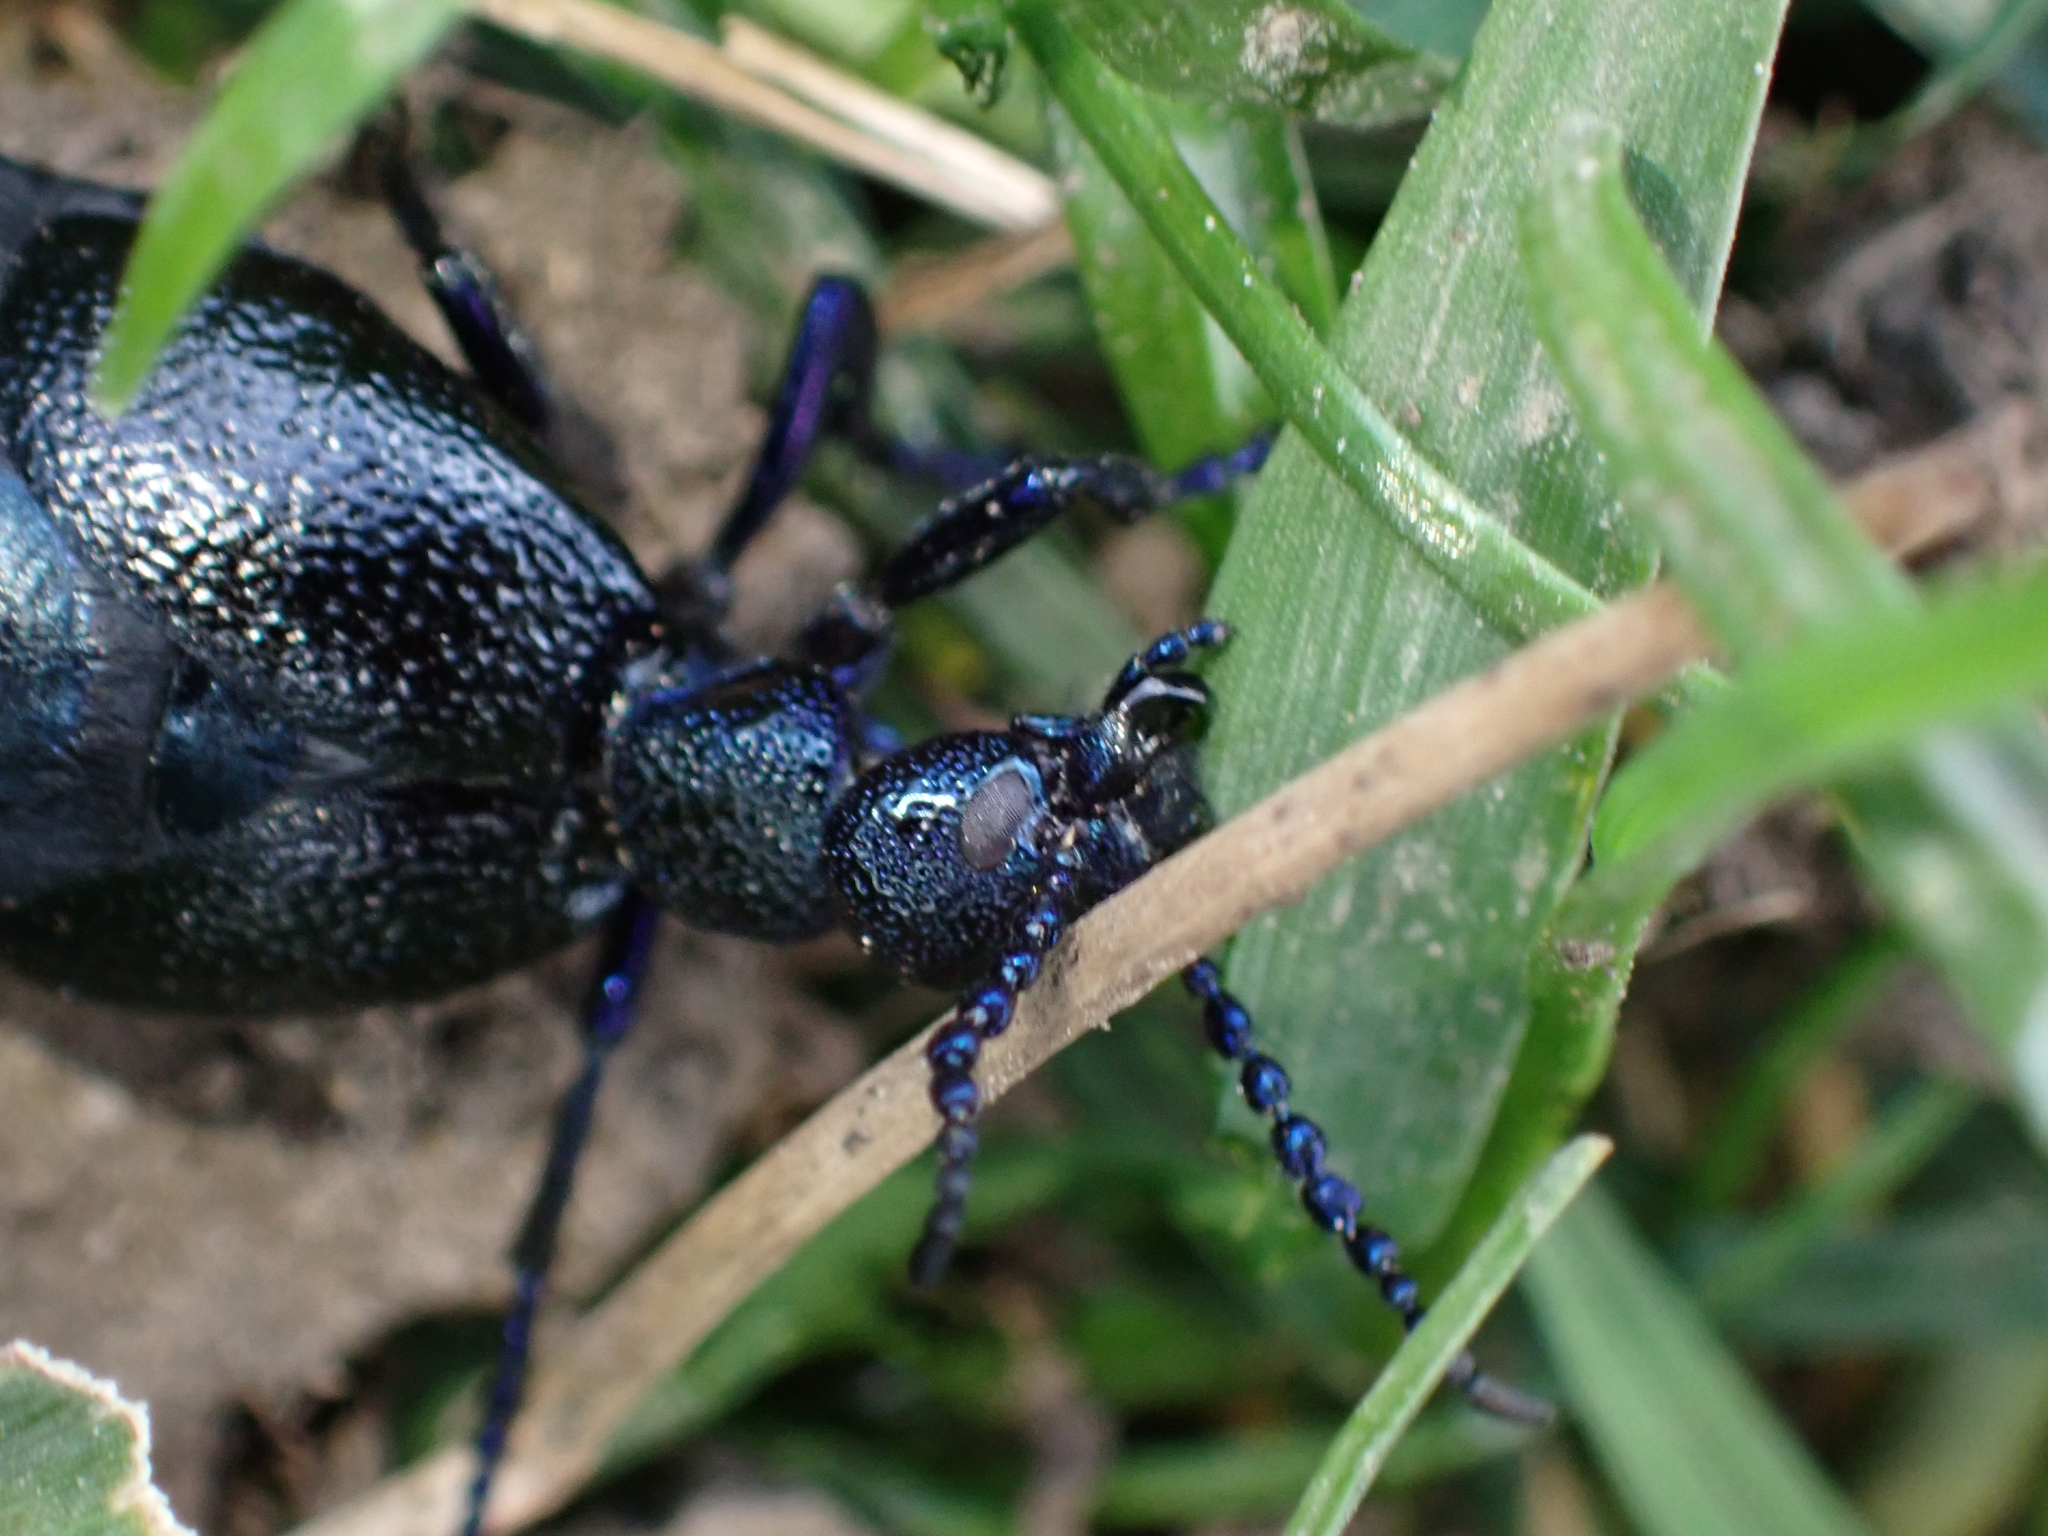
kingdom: Animalia
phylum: Arthropoda
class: Insecta
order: Coleoptera
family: Meloidae
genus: Meloe
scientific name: Meloe proscarabaeus
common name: Black oil-beetle
